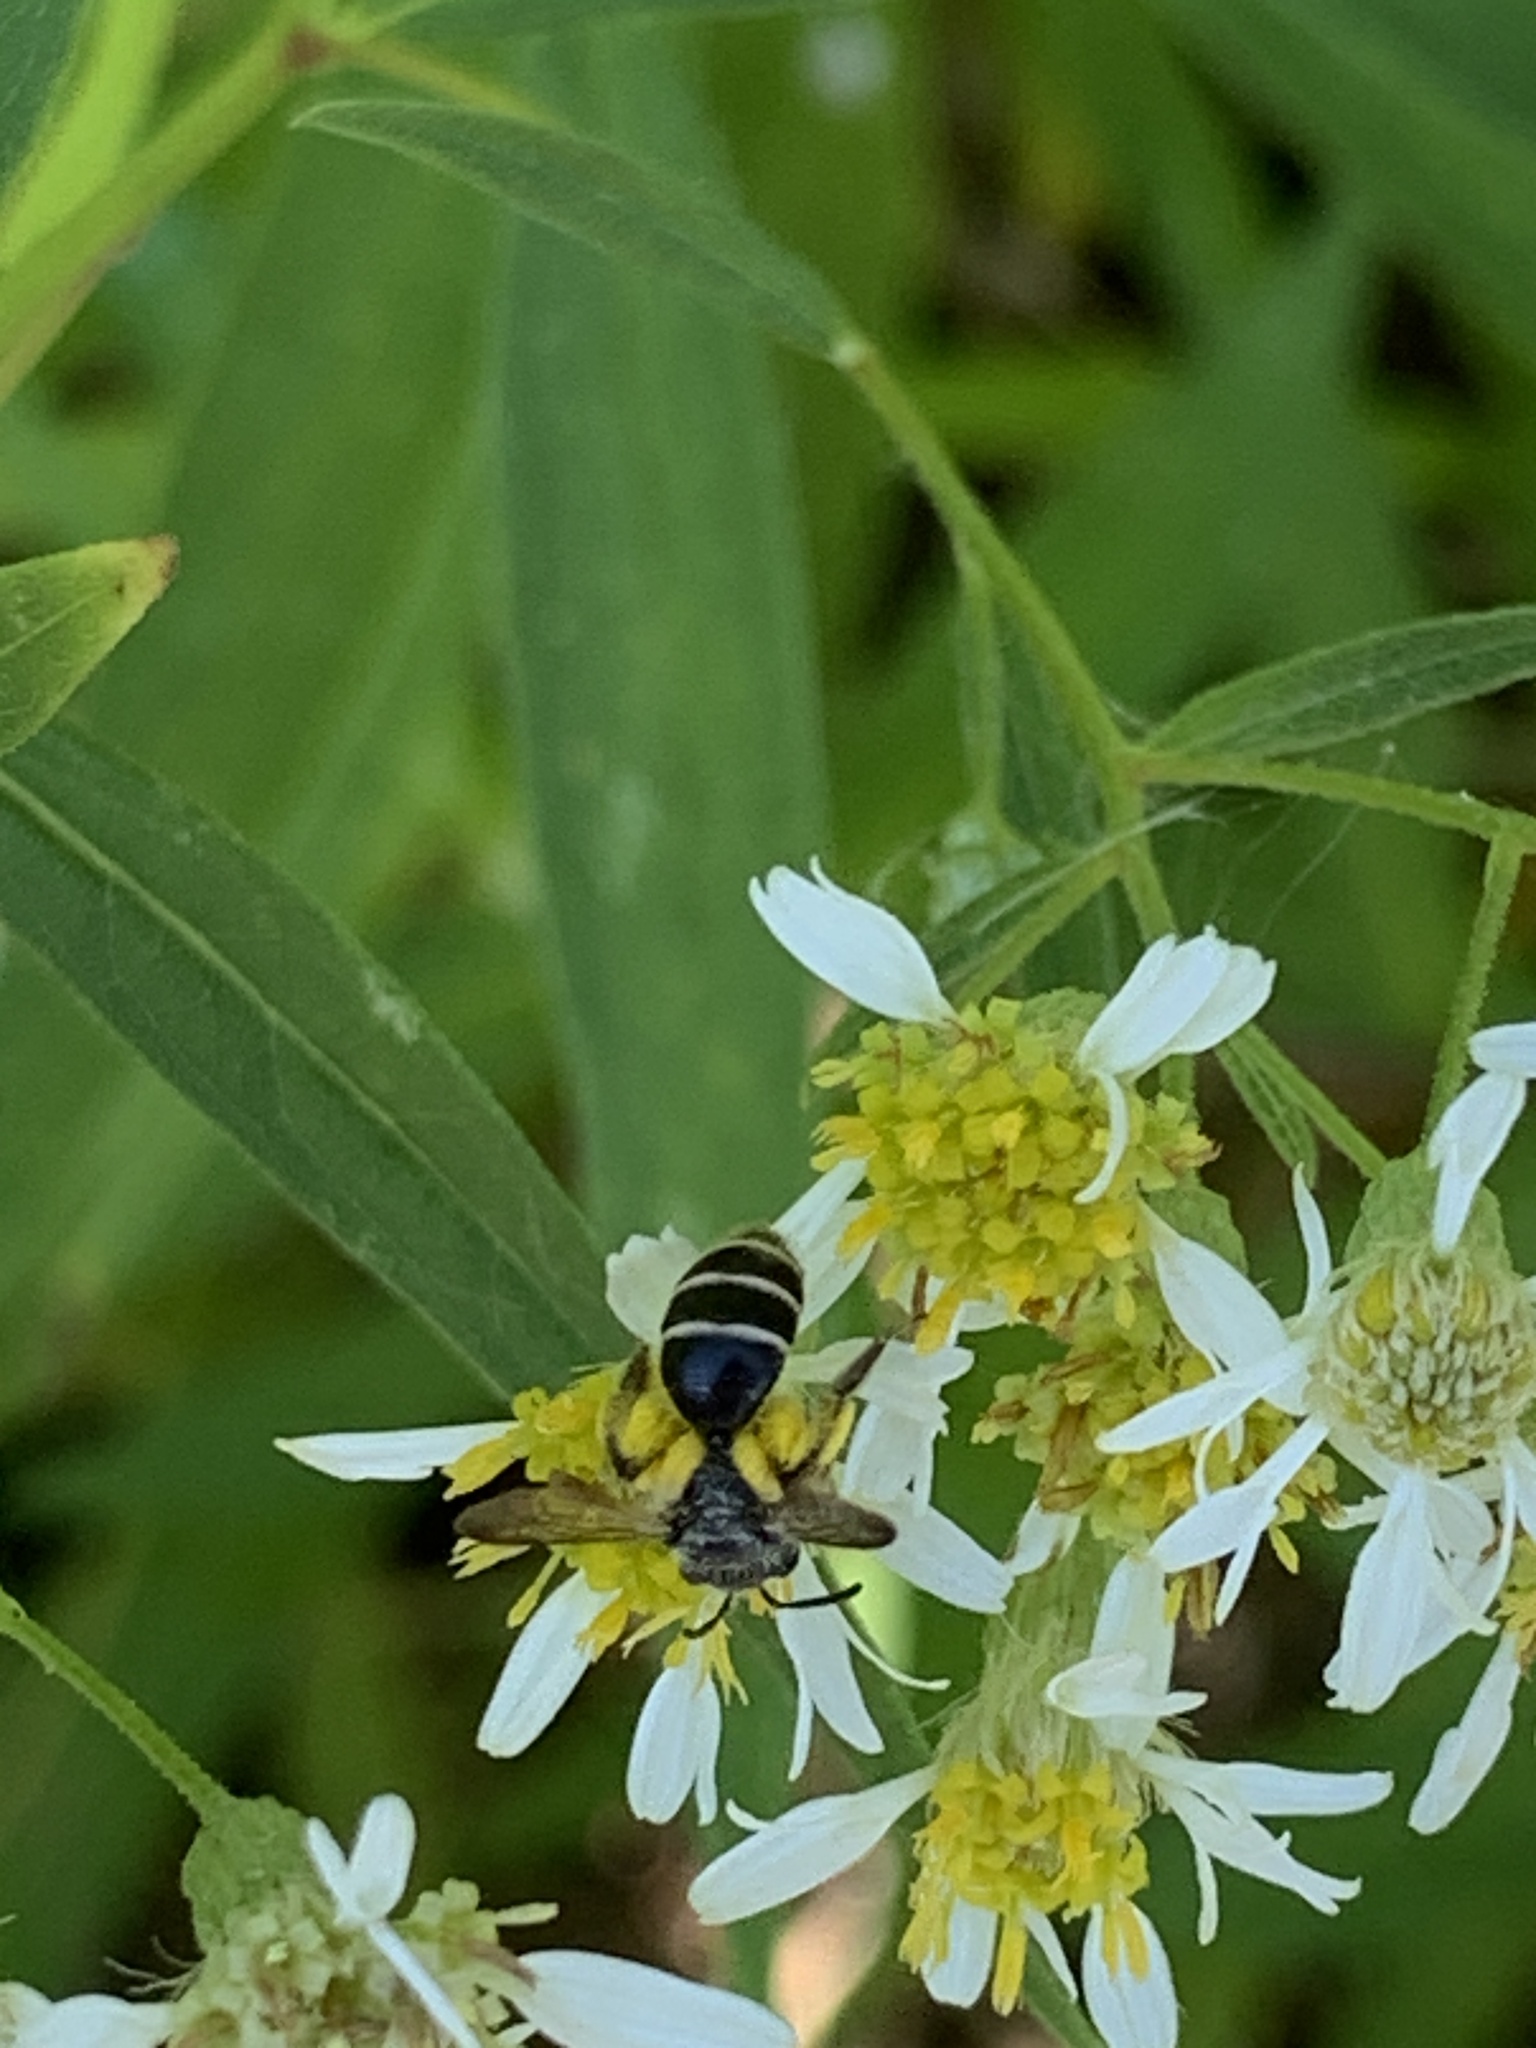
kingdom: Animalia
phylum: Arthropoda
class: Insecta
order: Hymenoptera
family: Andrenidae
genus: Andrena
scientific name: Andrena nubecula
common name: Cloudy-winged mining bee
